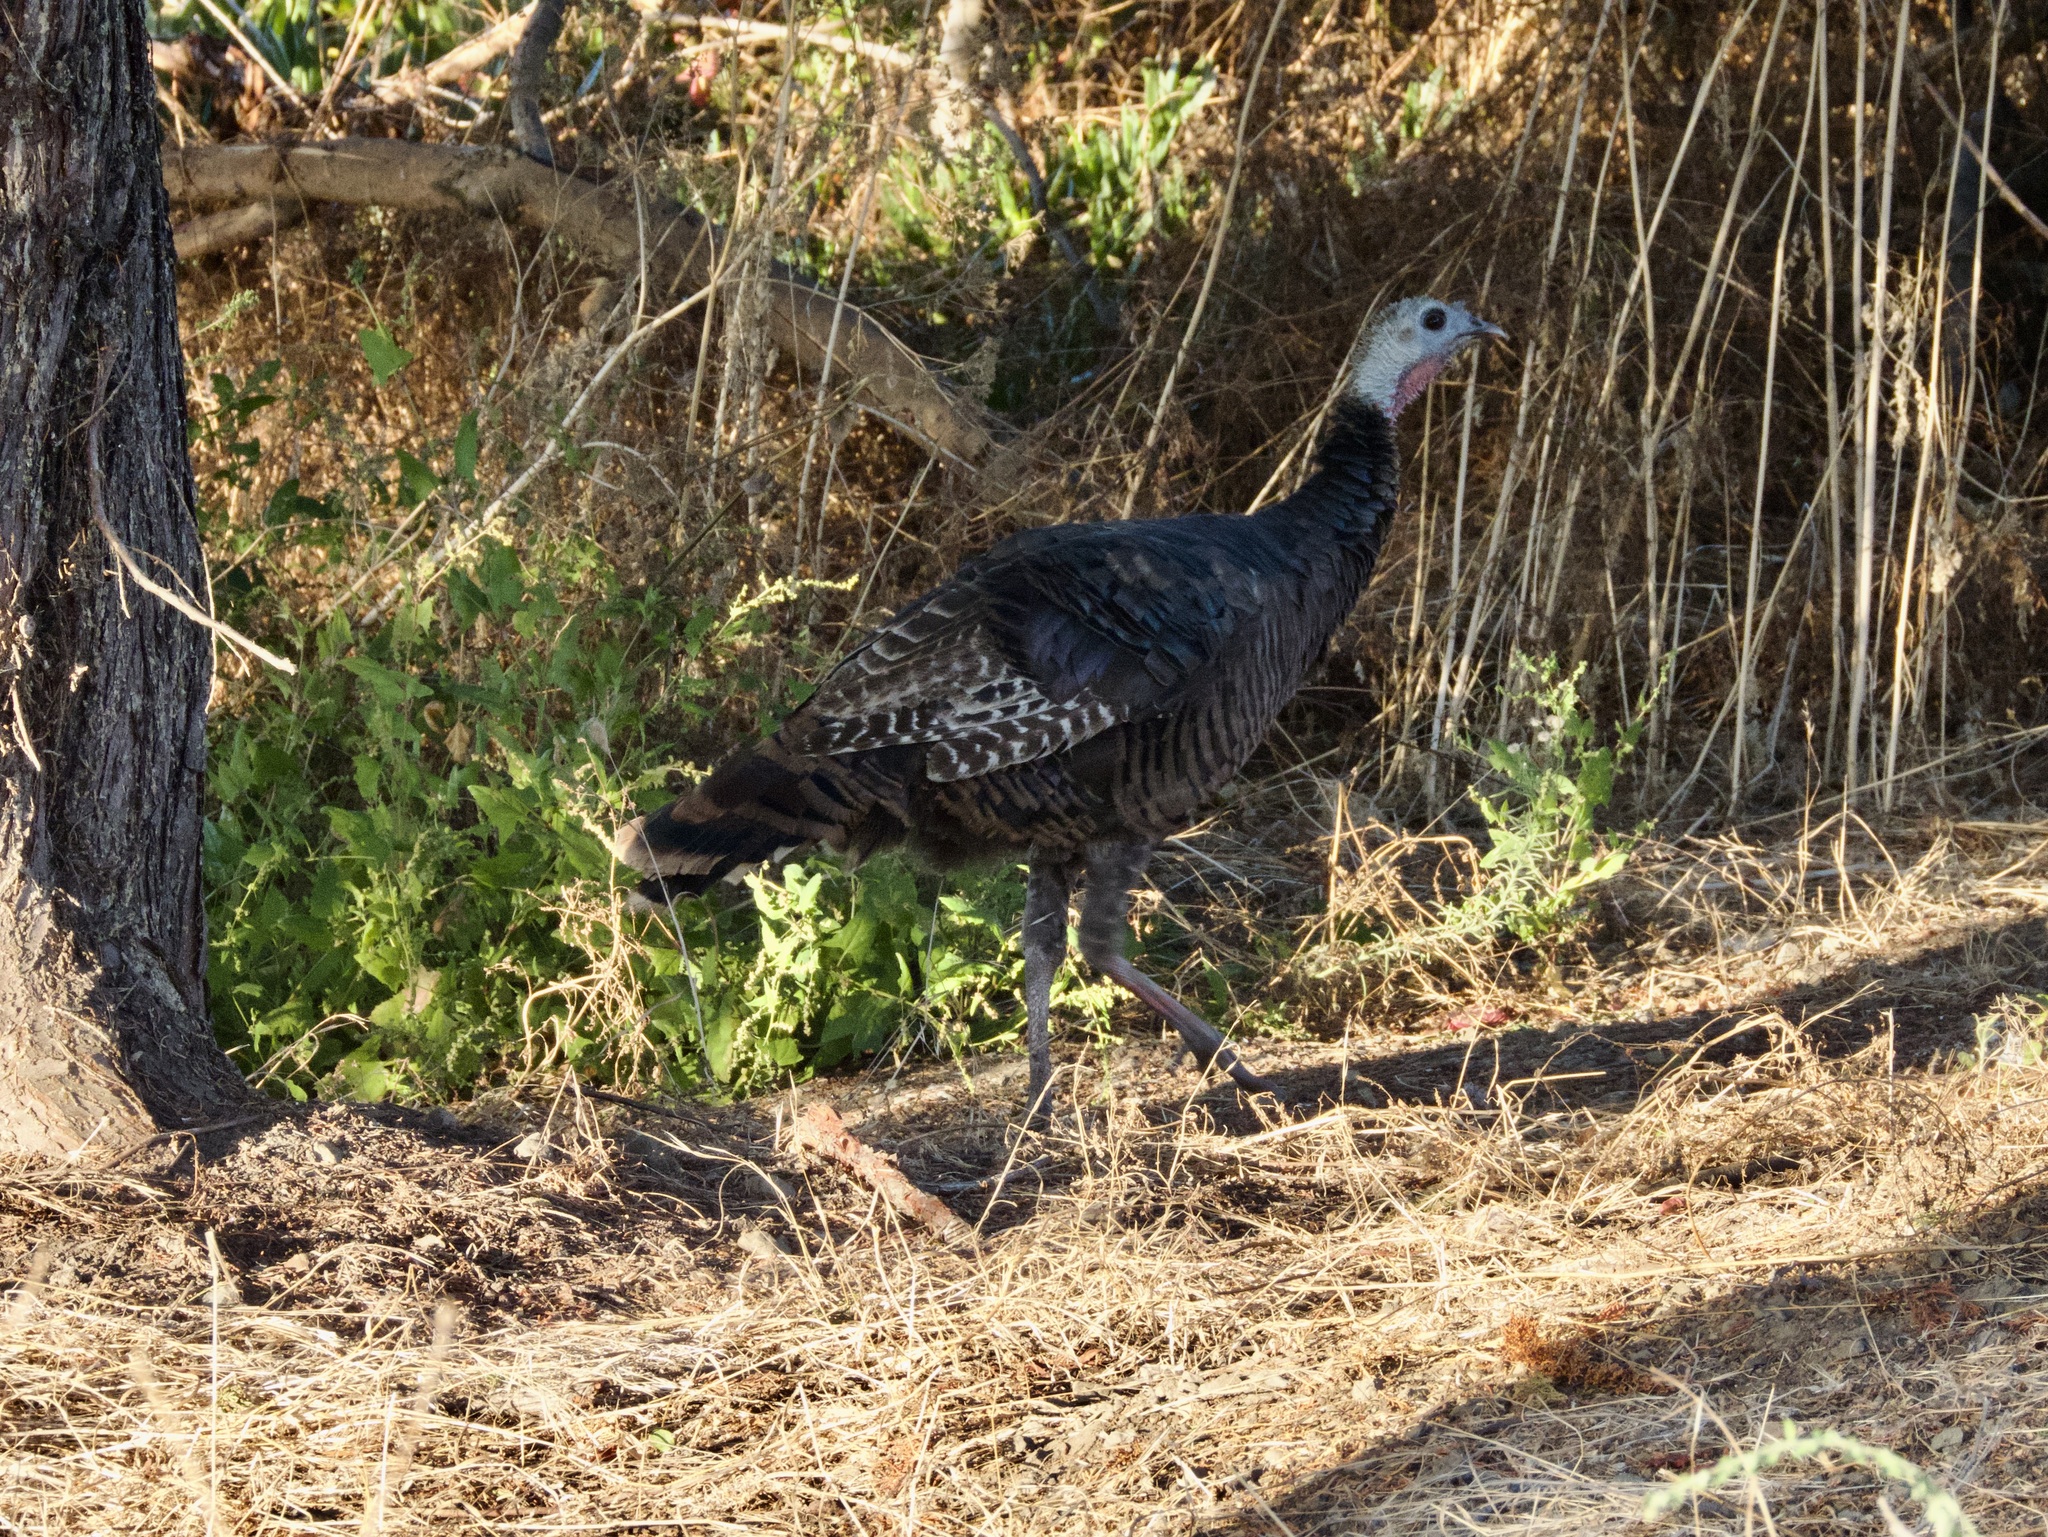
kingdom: Animalia
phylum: Chordata
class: Aves
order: Galliformes
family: Phasianidae
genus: Meleagris
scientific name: Meleagris gallopavo
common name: Wild turkey
